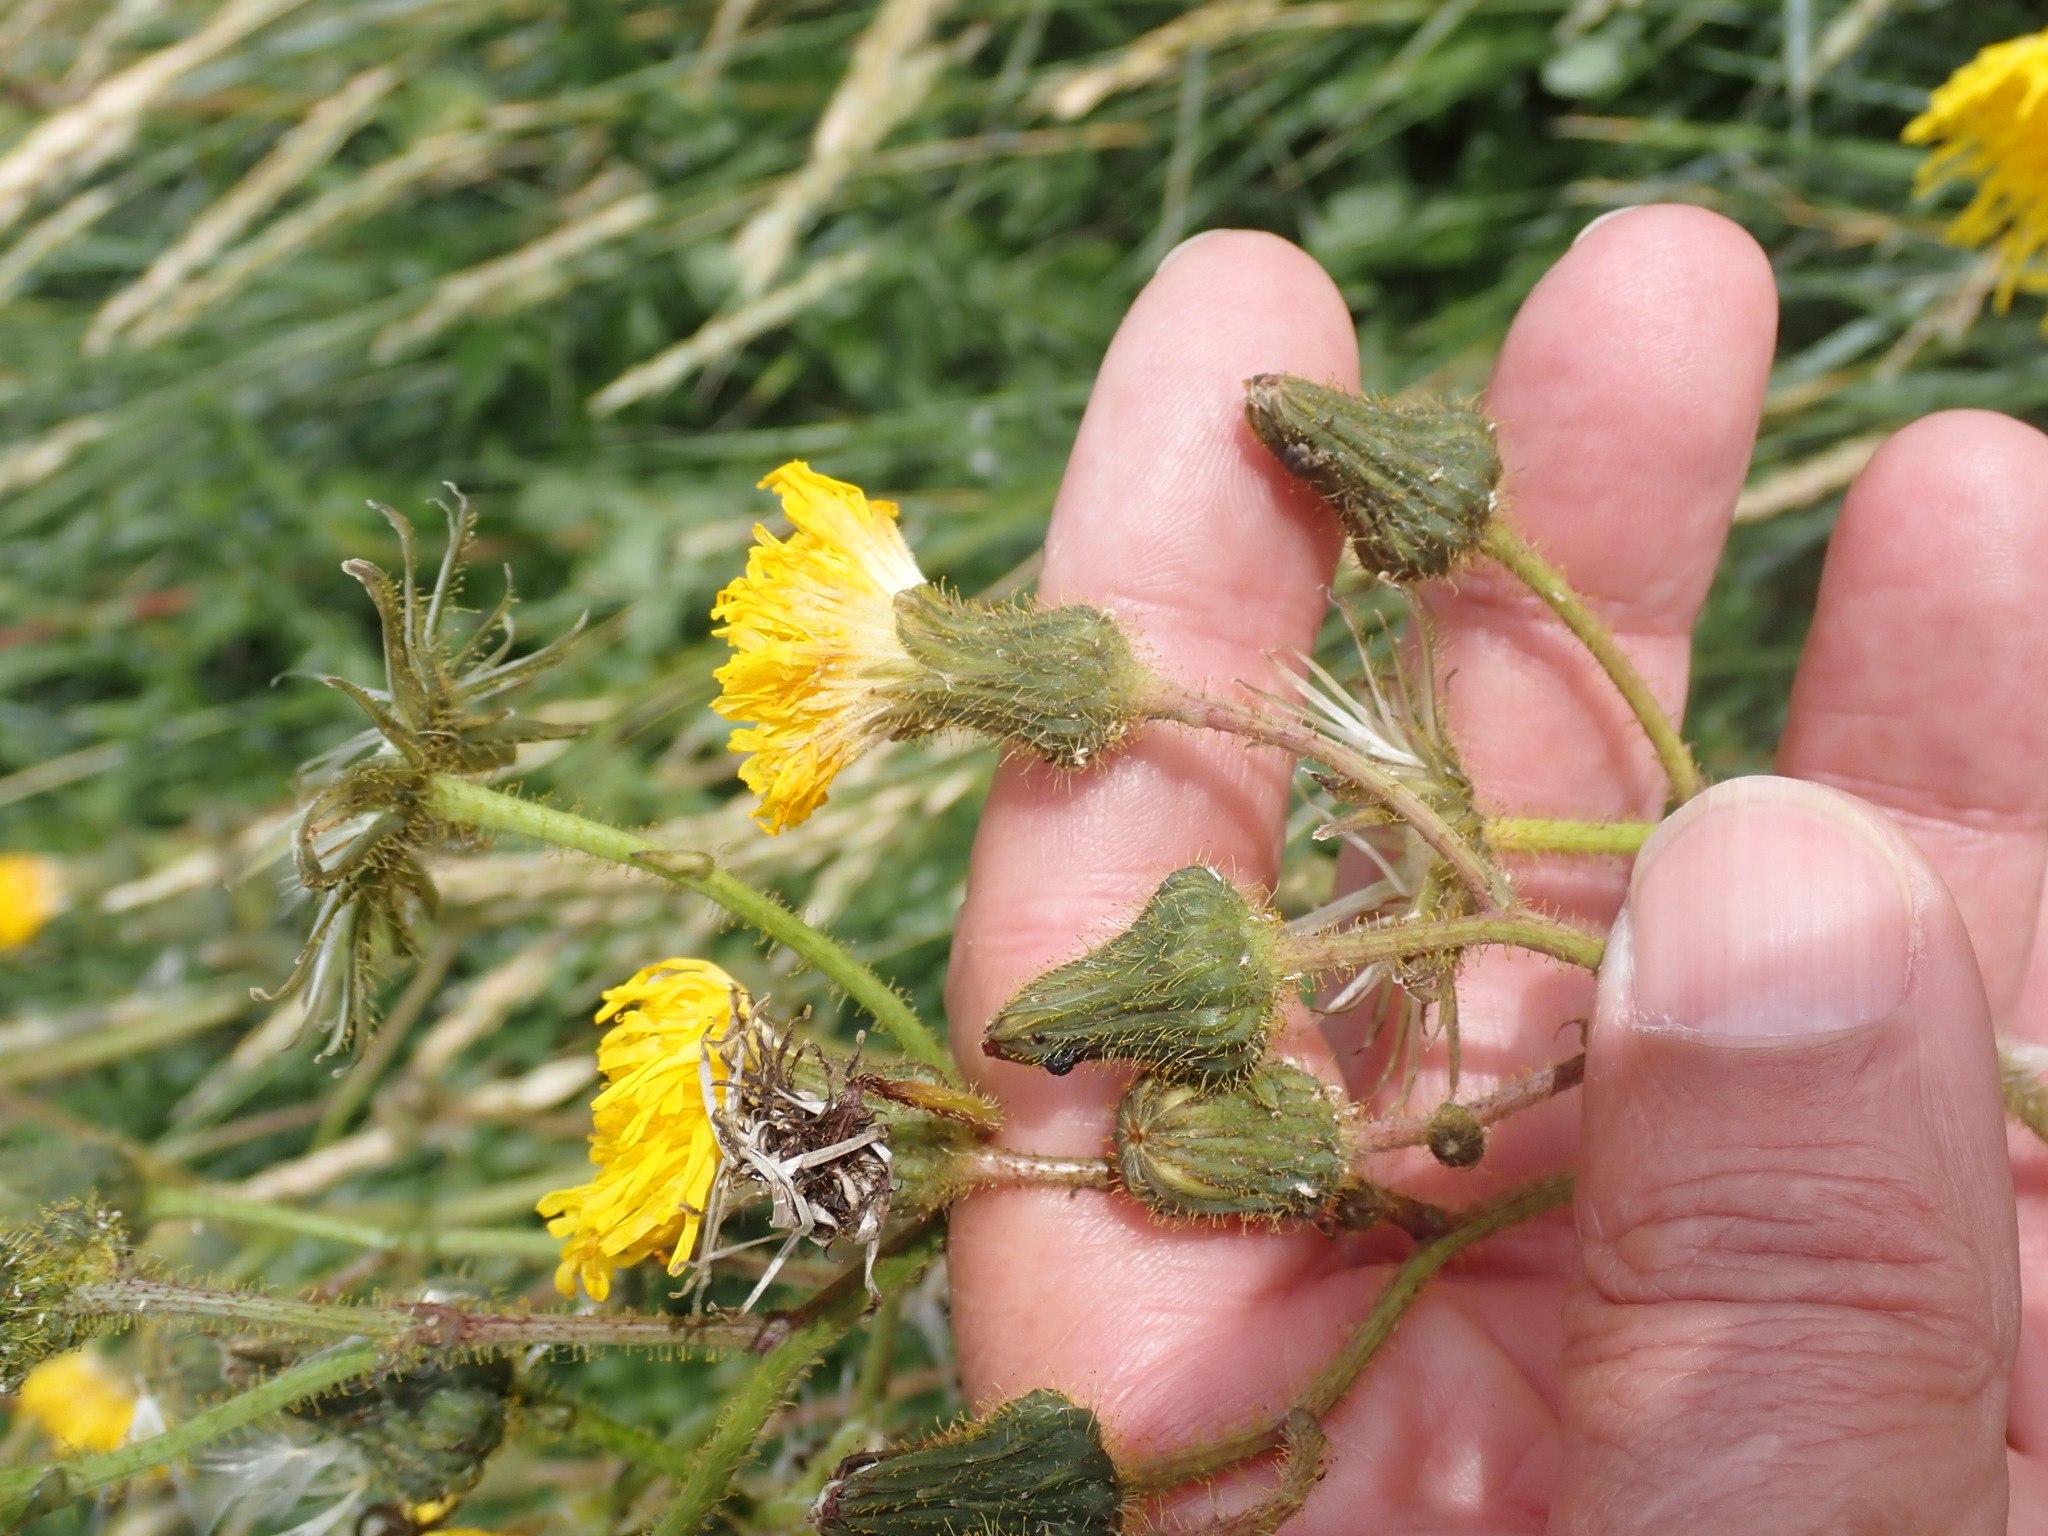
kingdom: Plantae
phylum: Tracheophyta
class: Magnoliopsida
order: Asterales
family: Asteraceae
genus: Sonchus
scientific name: Sonchus arvensis
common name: Perennial sow-thistle
